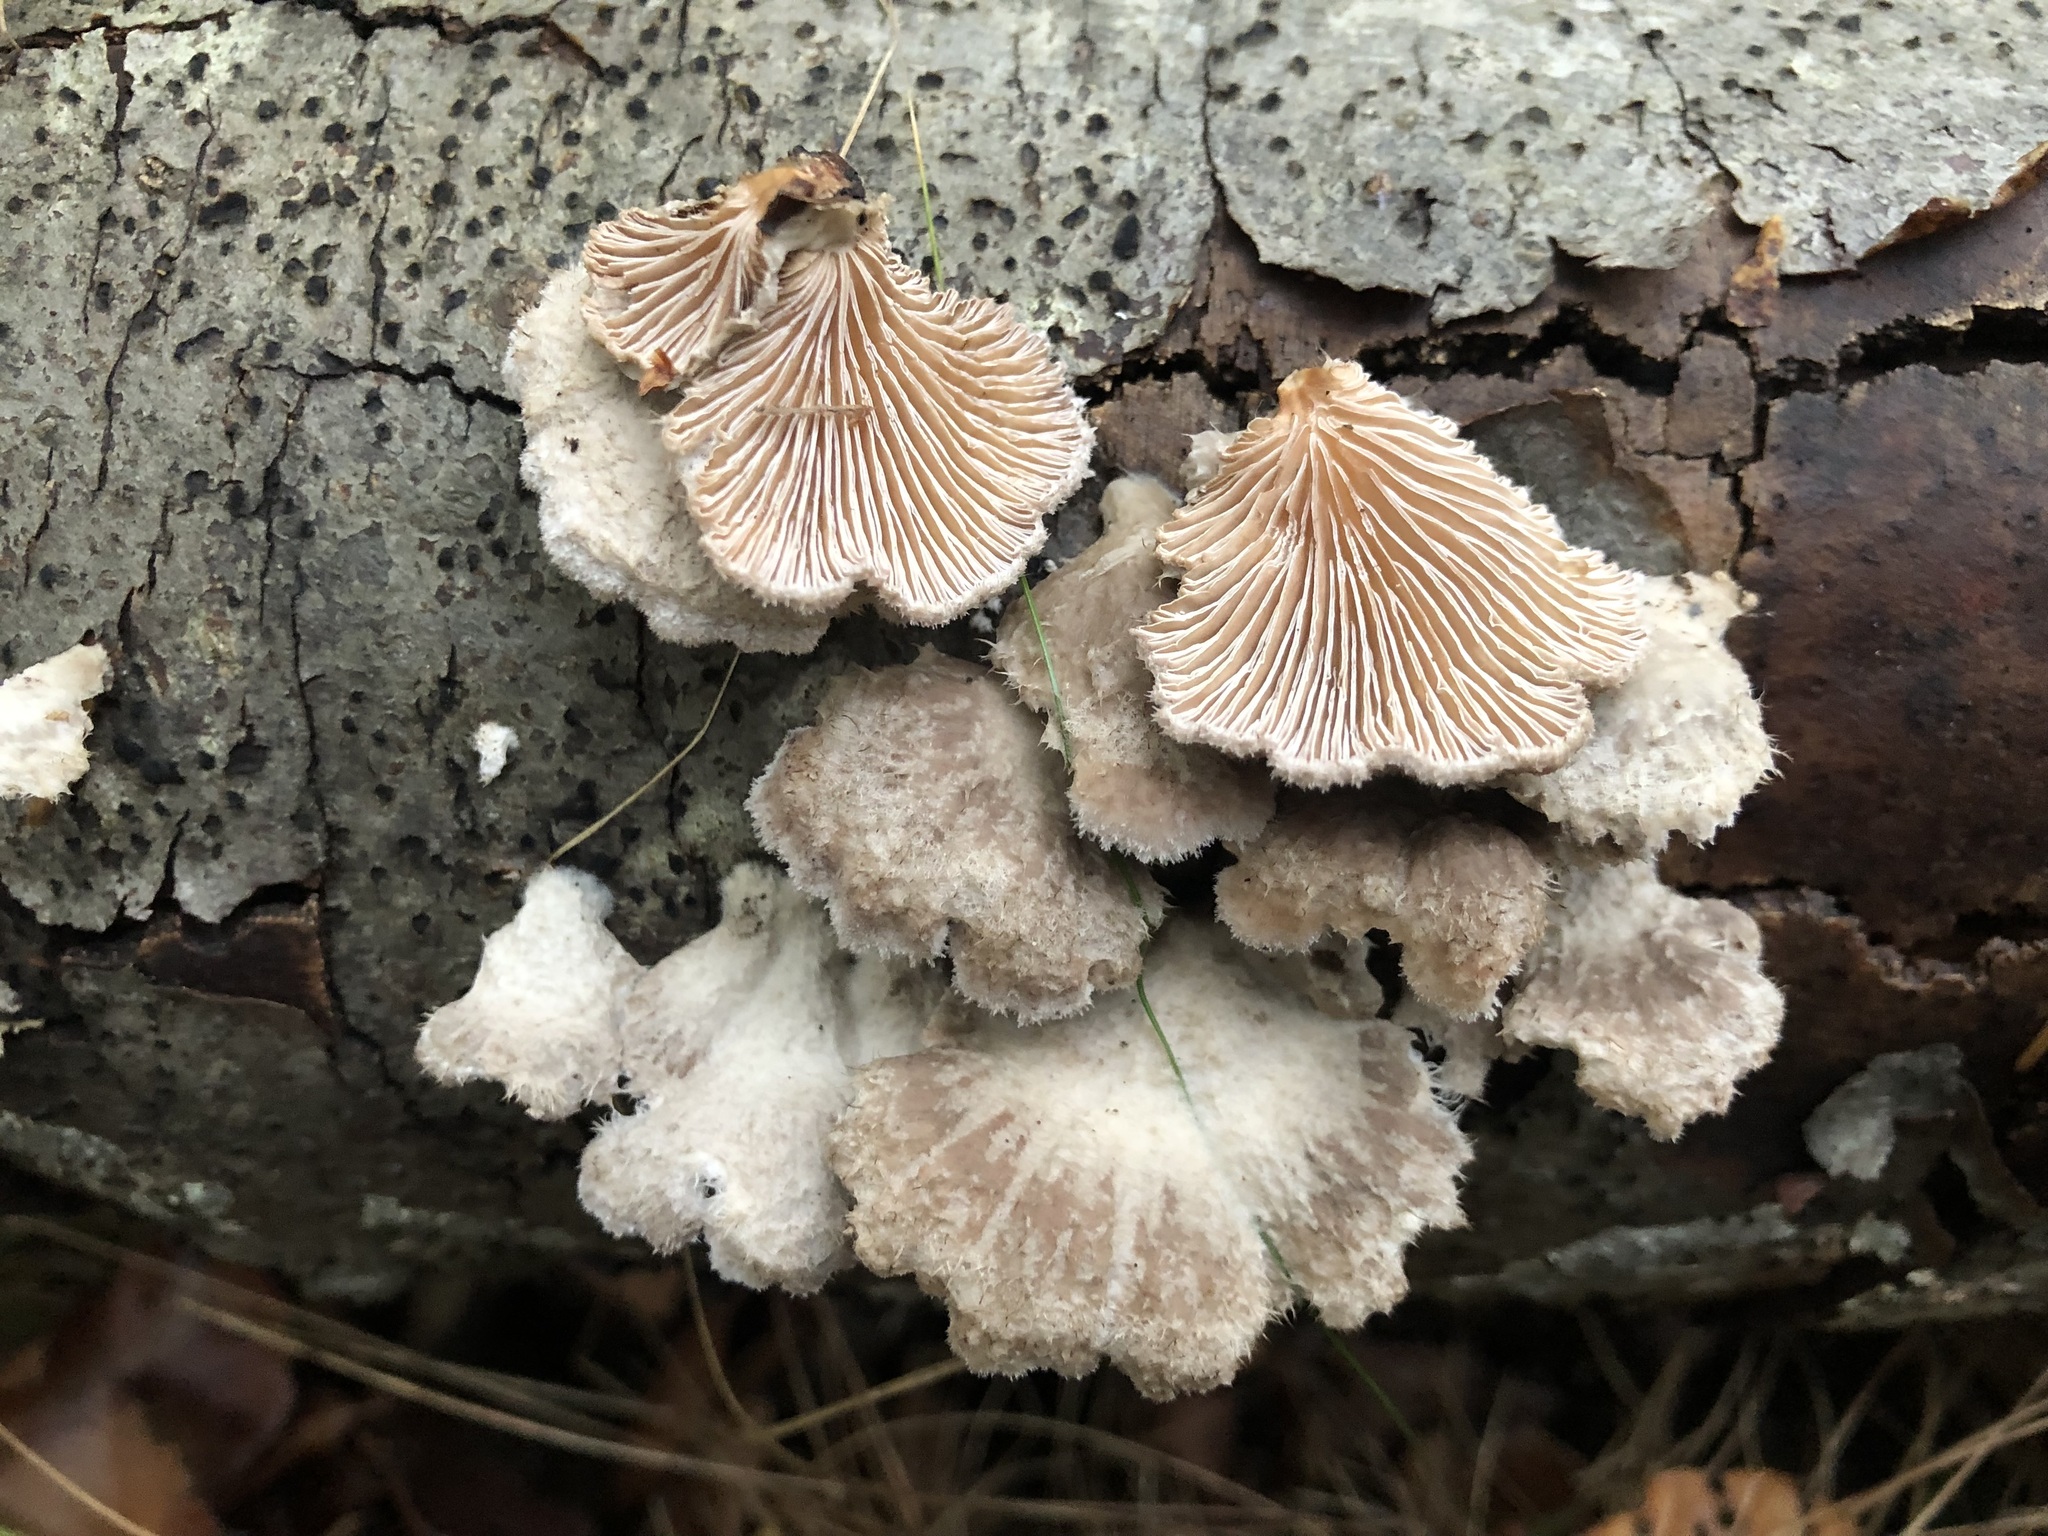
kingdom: Fungi
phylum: Basidiomycota
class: Agaricomycetes
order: Agaricales
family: Schizophyllaceae
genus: Schizophyllum
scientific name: Schizophyllum commune
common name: Common porecrust
